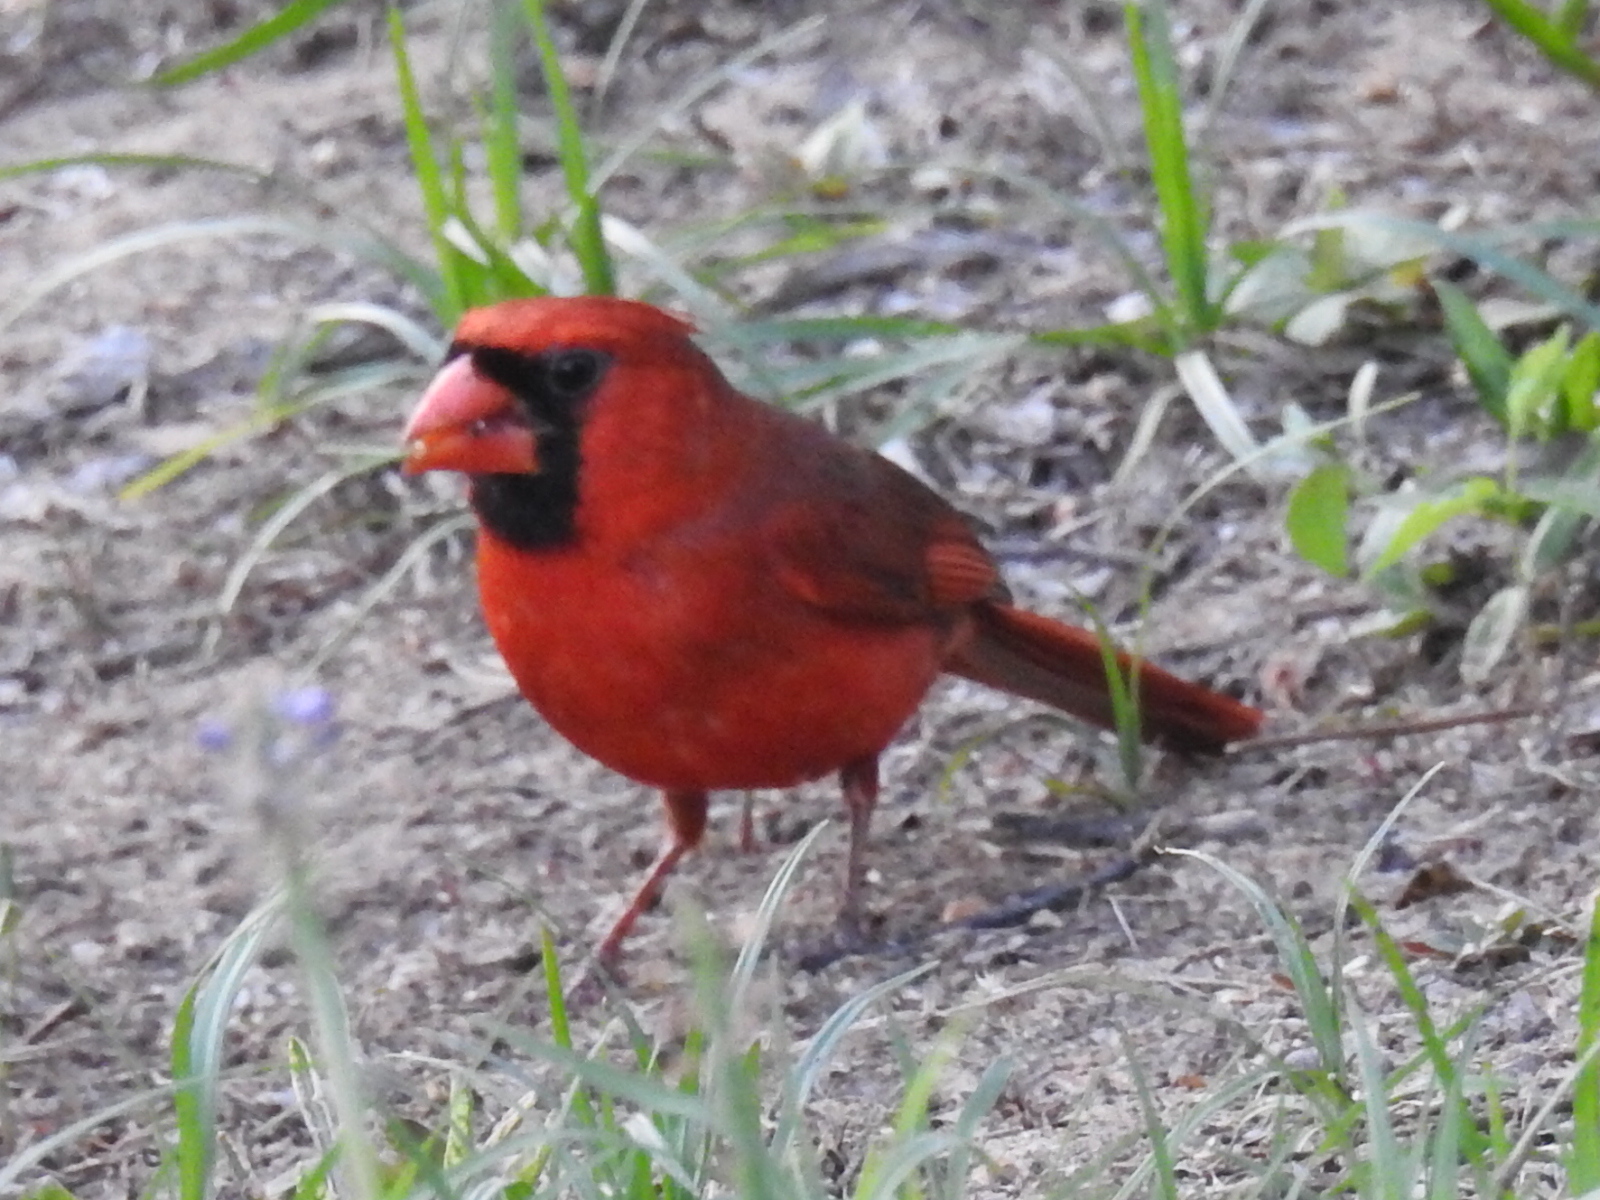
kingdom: Animalia
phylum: Chordata
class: Aves
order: Passeriformes
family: Cardinalidae
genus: Cardinalis
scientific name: Cardinalis cardinalis
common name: Northern cardinal
